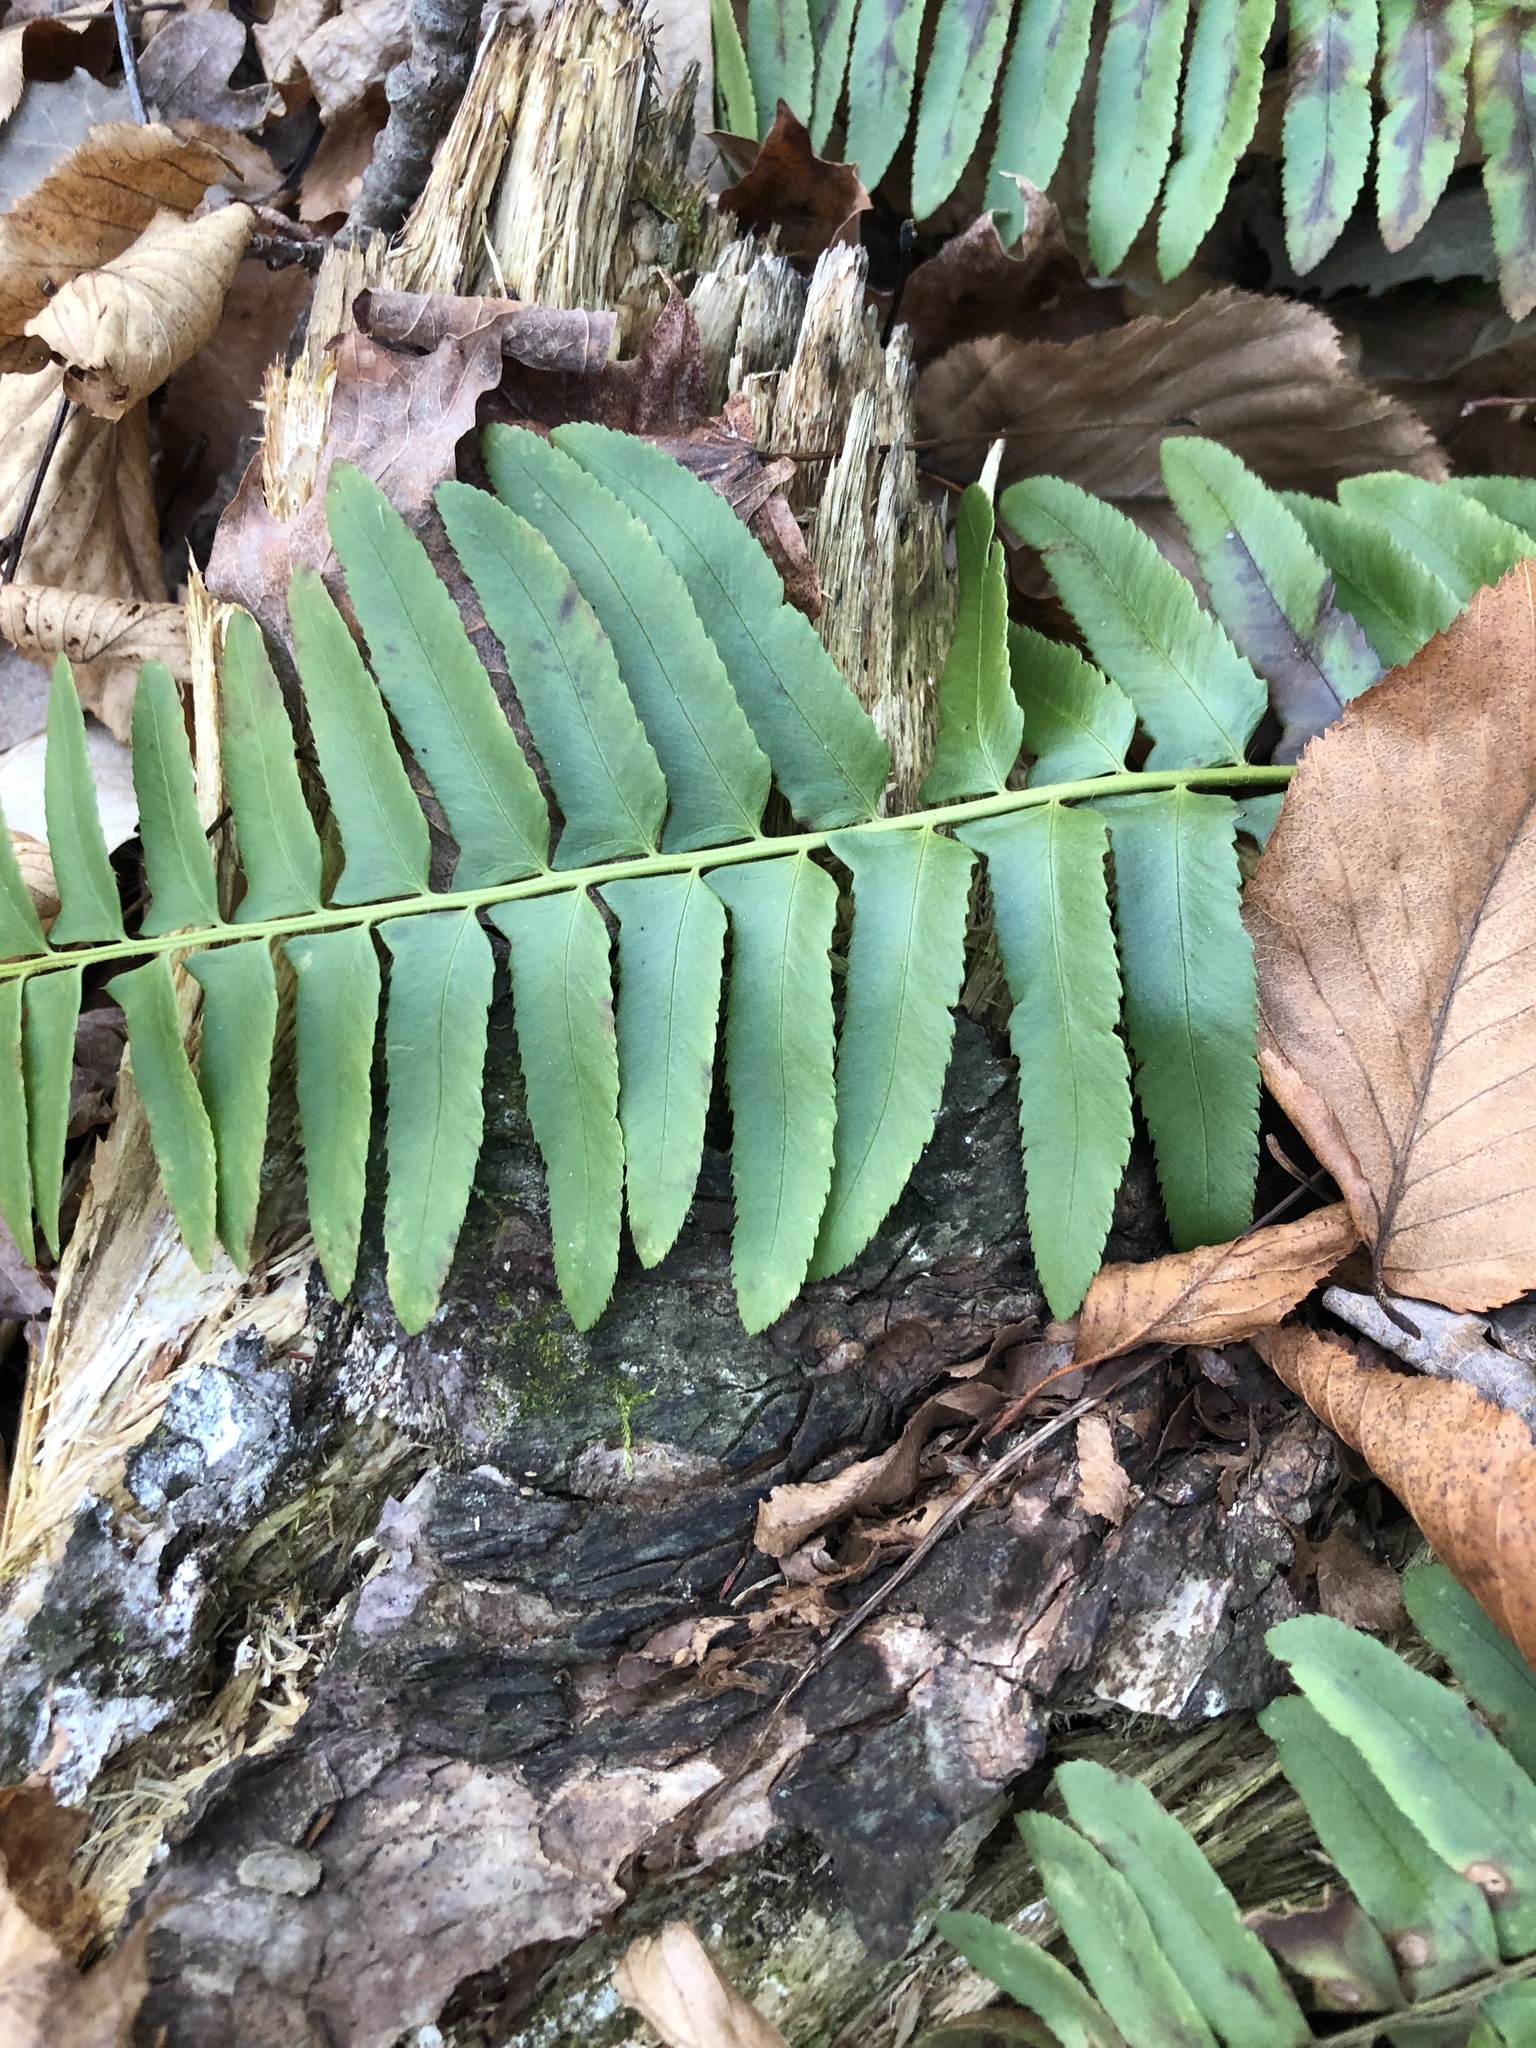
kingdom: Plantae
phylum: Tracheophyta
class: Polypodiopsida
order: Polypodiales
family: Dryopteridaceae
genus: Polystichum
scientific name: Polystichum acrostichoides
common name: Christmas fern
